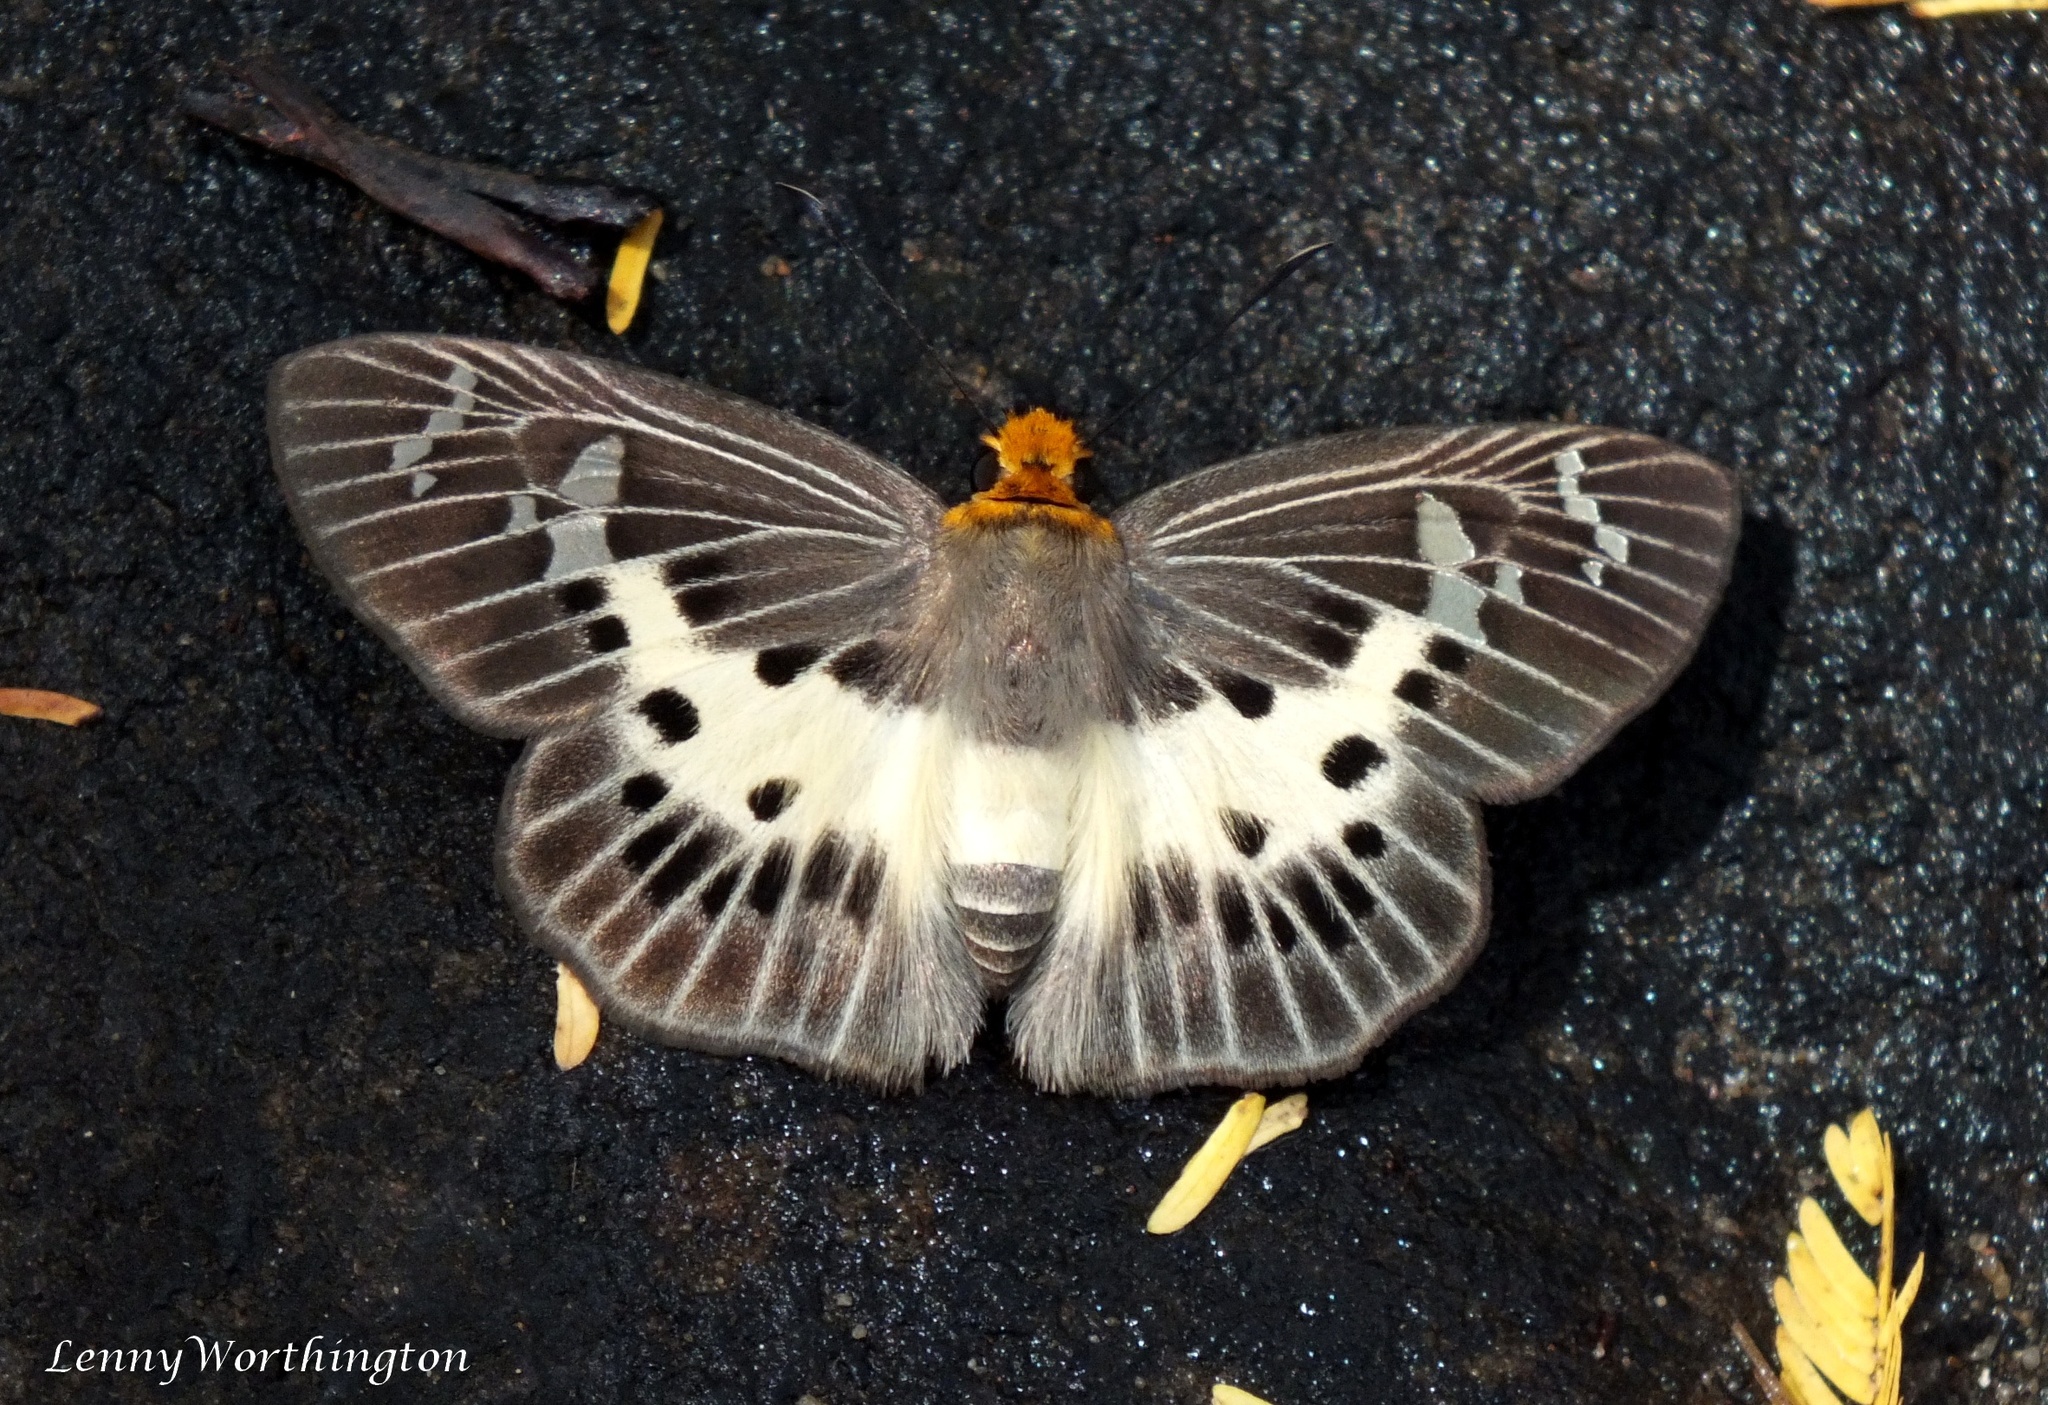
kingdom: Animalia
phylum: Arthropoda
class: Insecta
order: Lepidoptera
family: Hesperiidae
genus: Daimio
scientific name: Daimio
